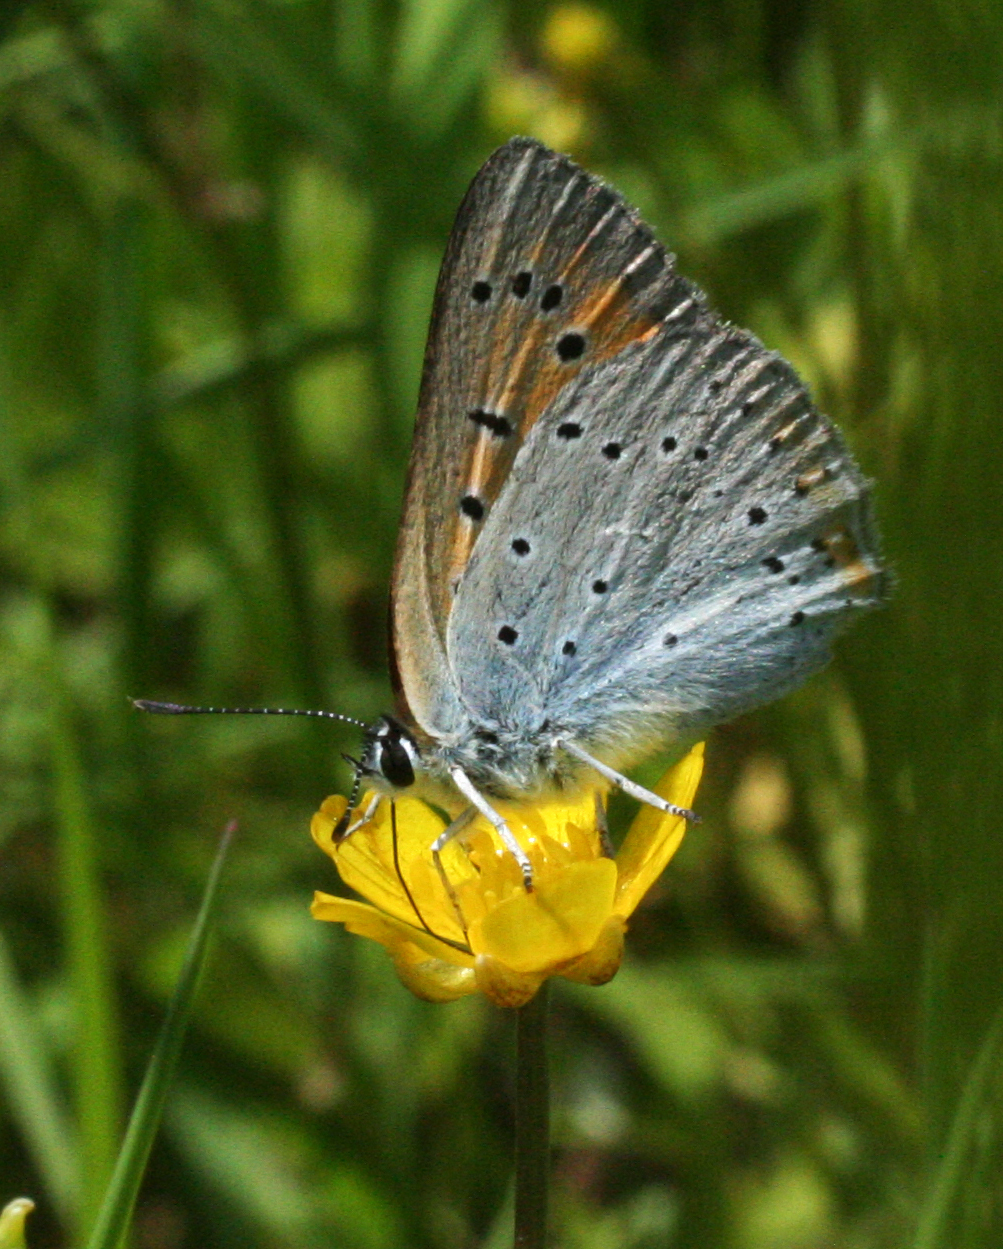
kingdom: Animalia
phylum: Arthropoda
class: Insecta
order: Lepidoptera
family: Lycaenidae
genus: Lycaena
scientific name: Lycaena dispar
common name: Large copper
